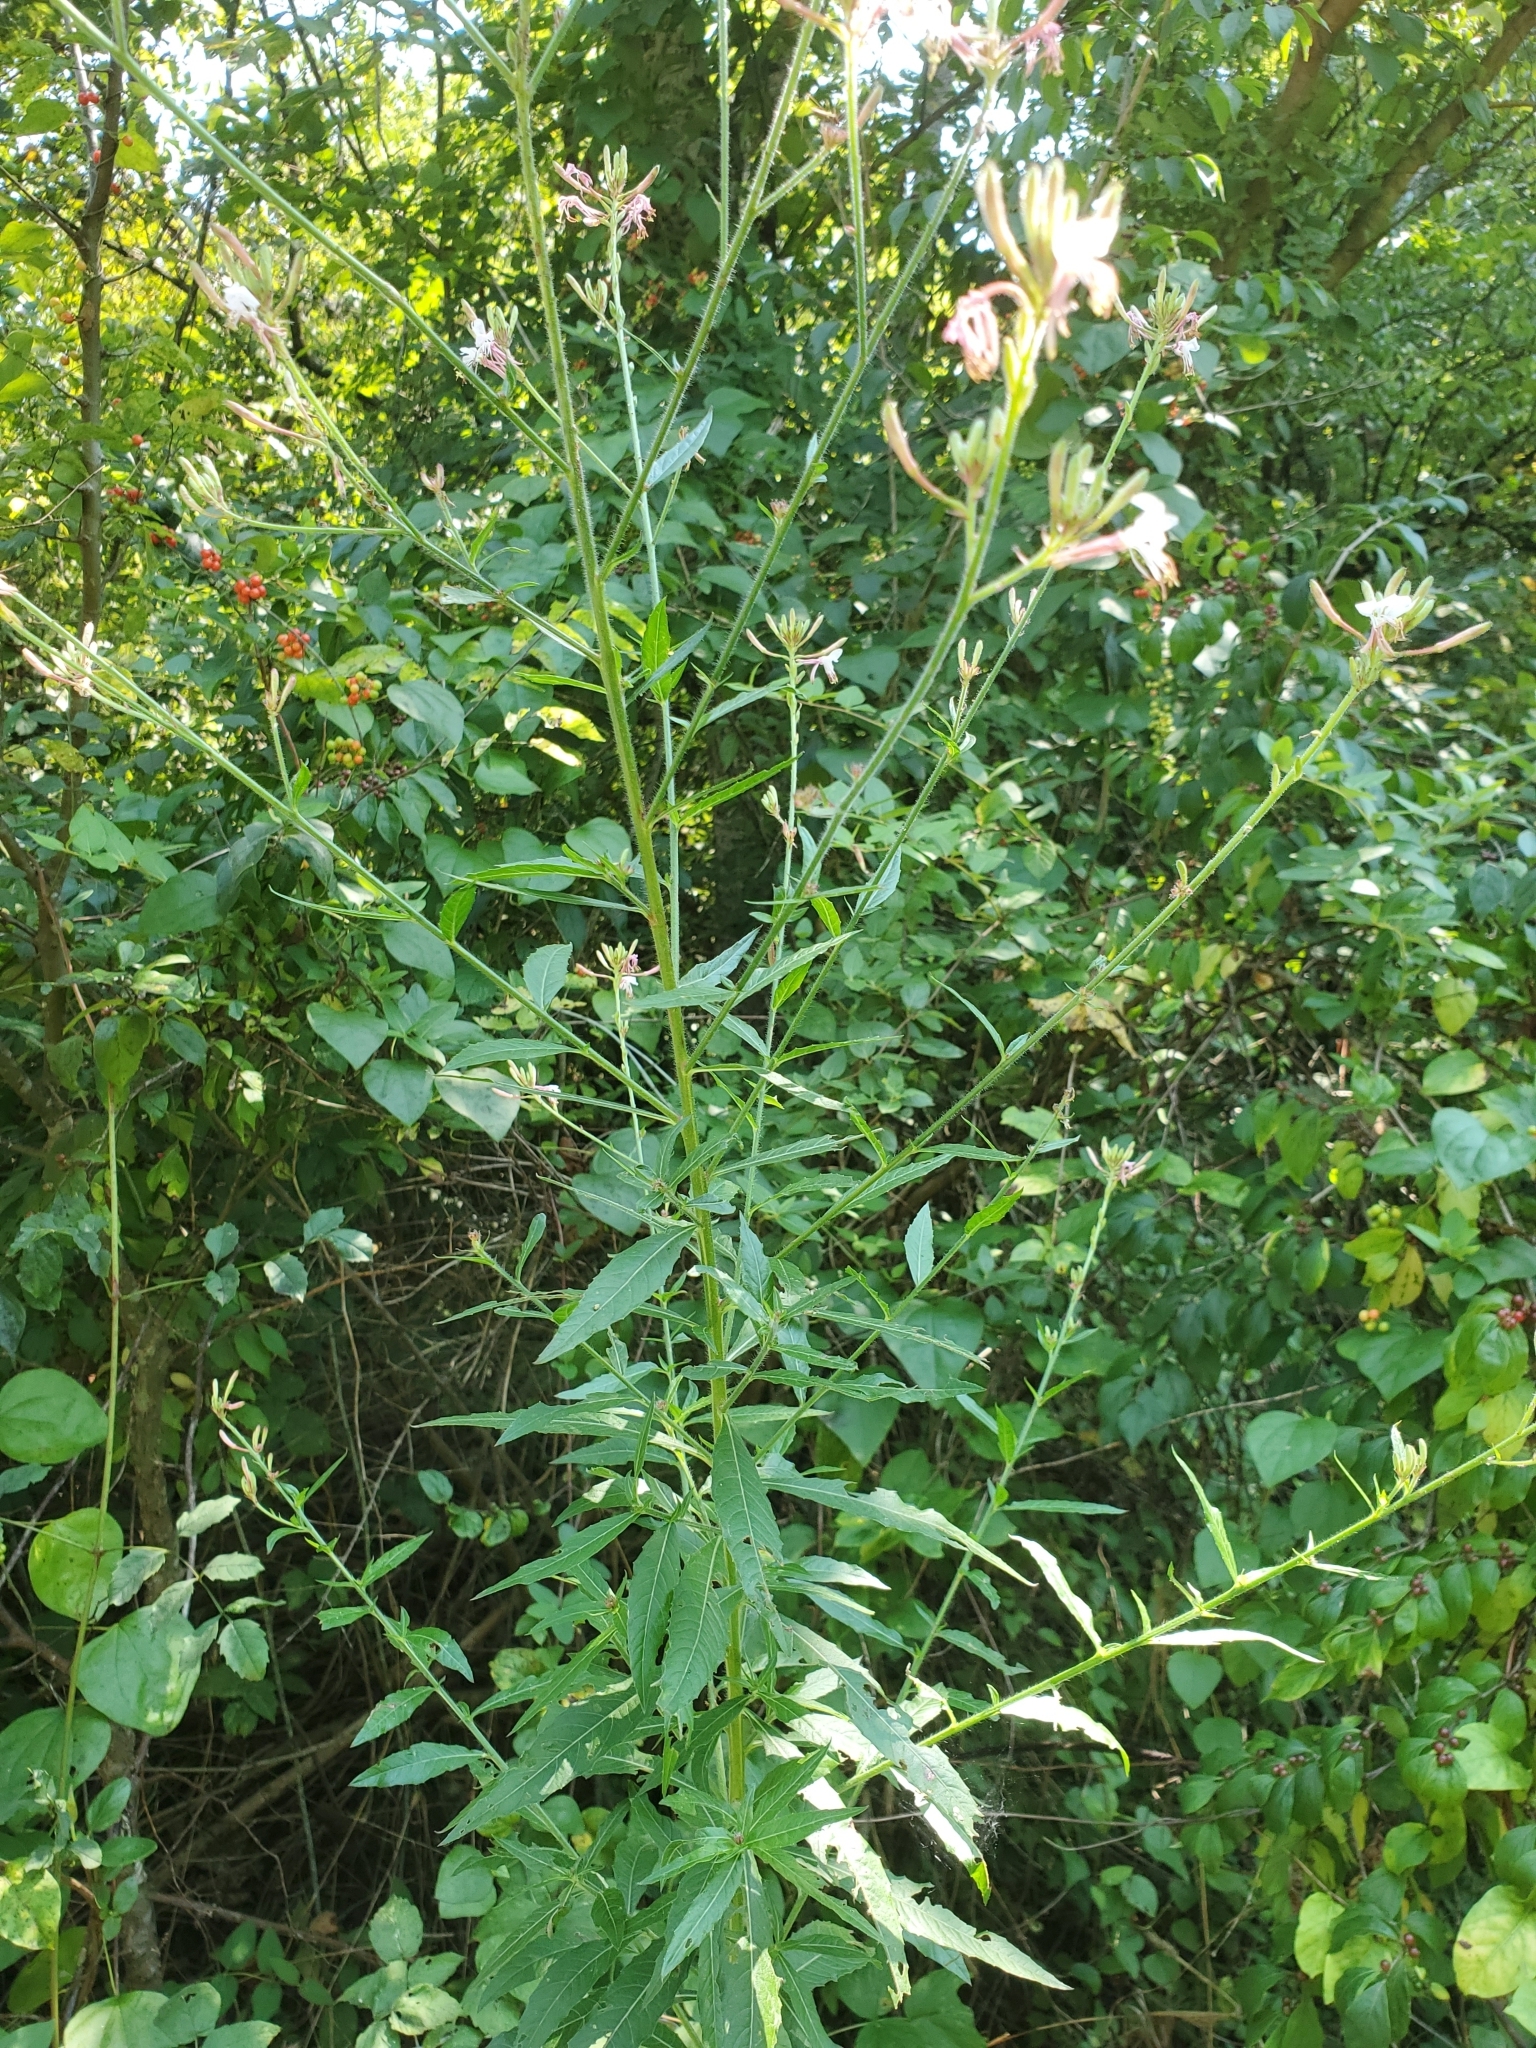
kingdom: Plantae
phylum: Tracheophyta
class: Magnoliopsida
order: Myrtales
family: Onagraceae
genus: Oenothera
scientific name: Oenothera gaura
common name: Biennial beeblossom
